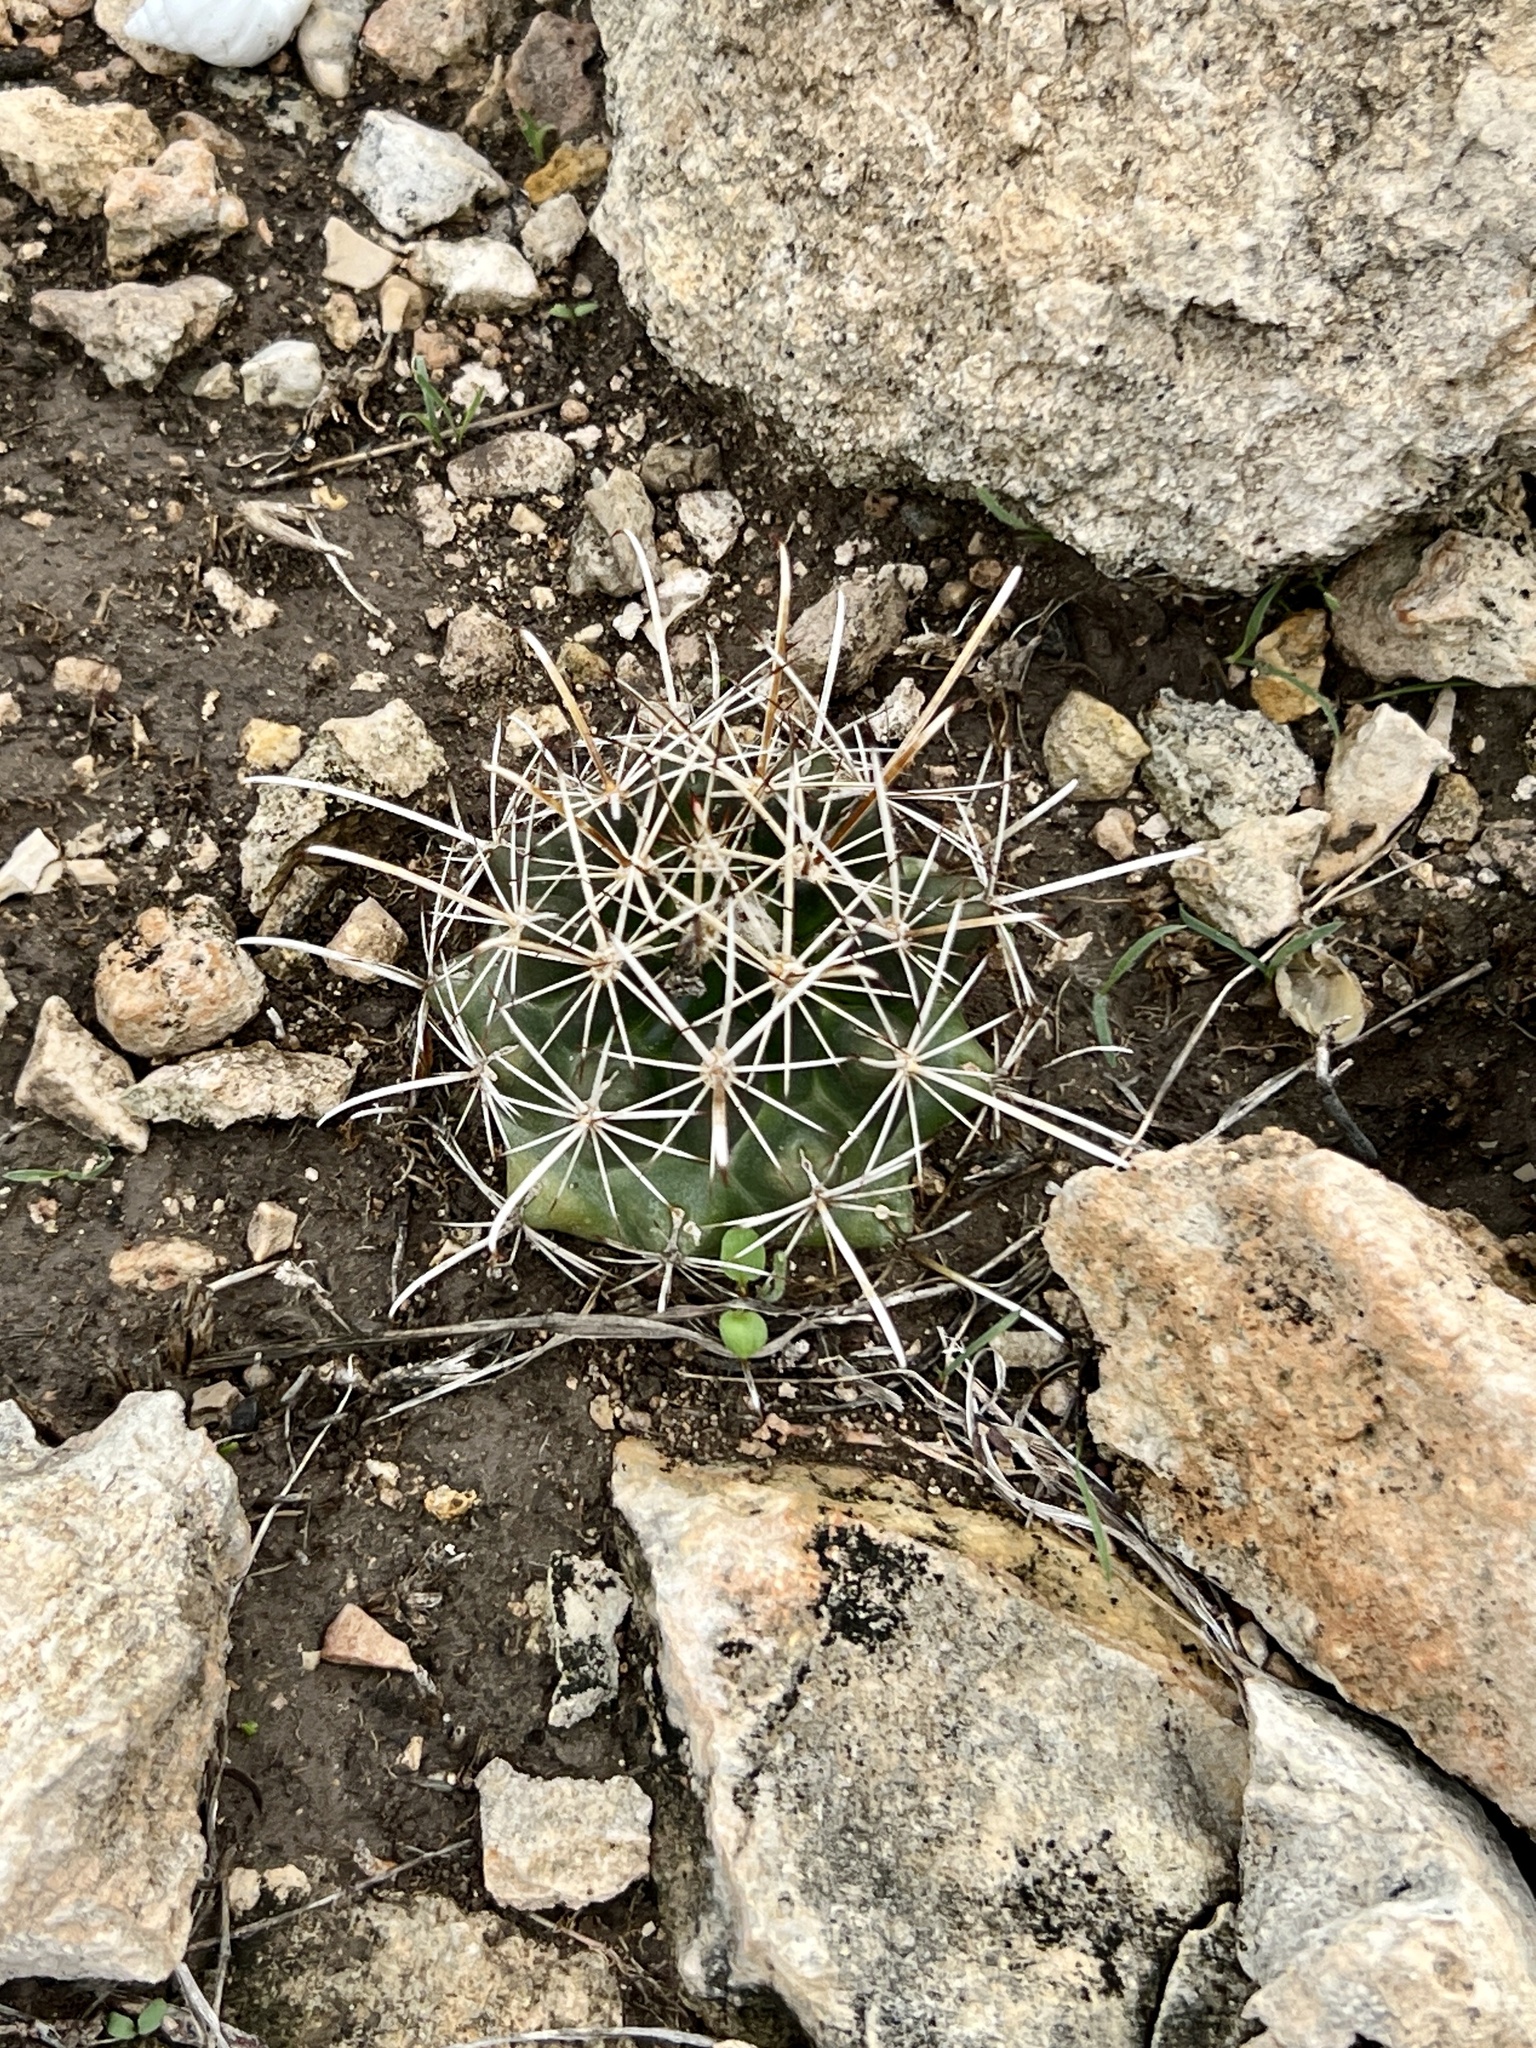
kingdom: Plantae
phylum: Tracheophyta
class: Magnoliopsida
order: Caryophyllales
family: Cactaceae
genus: Sclerocactus
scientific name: Sclerocactus brevihamatus
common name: Engelmann's fishhook cactus
